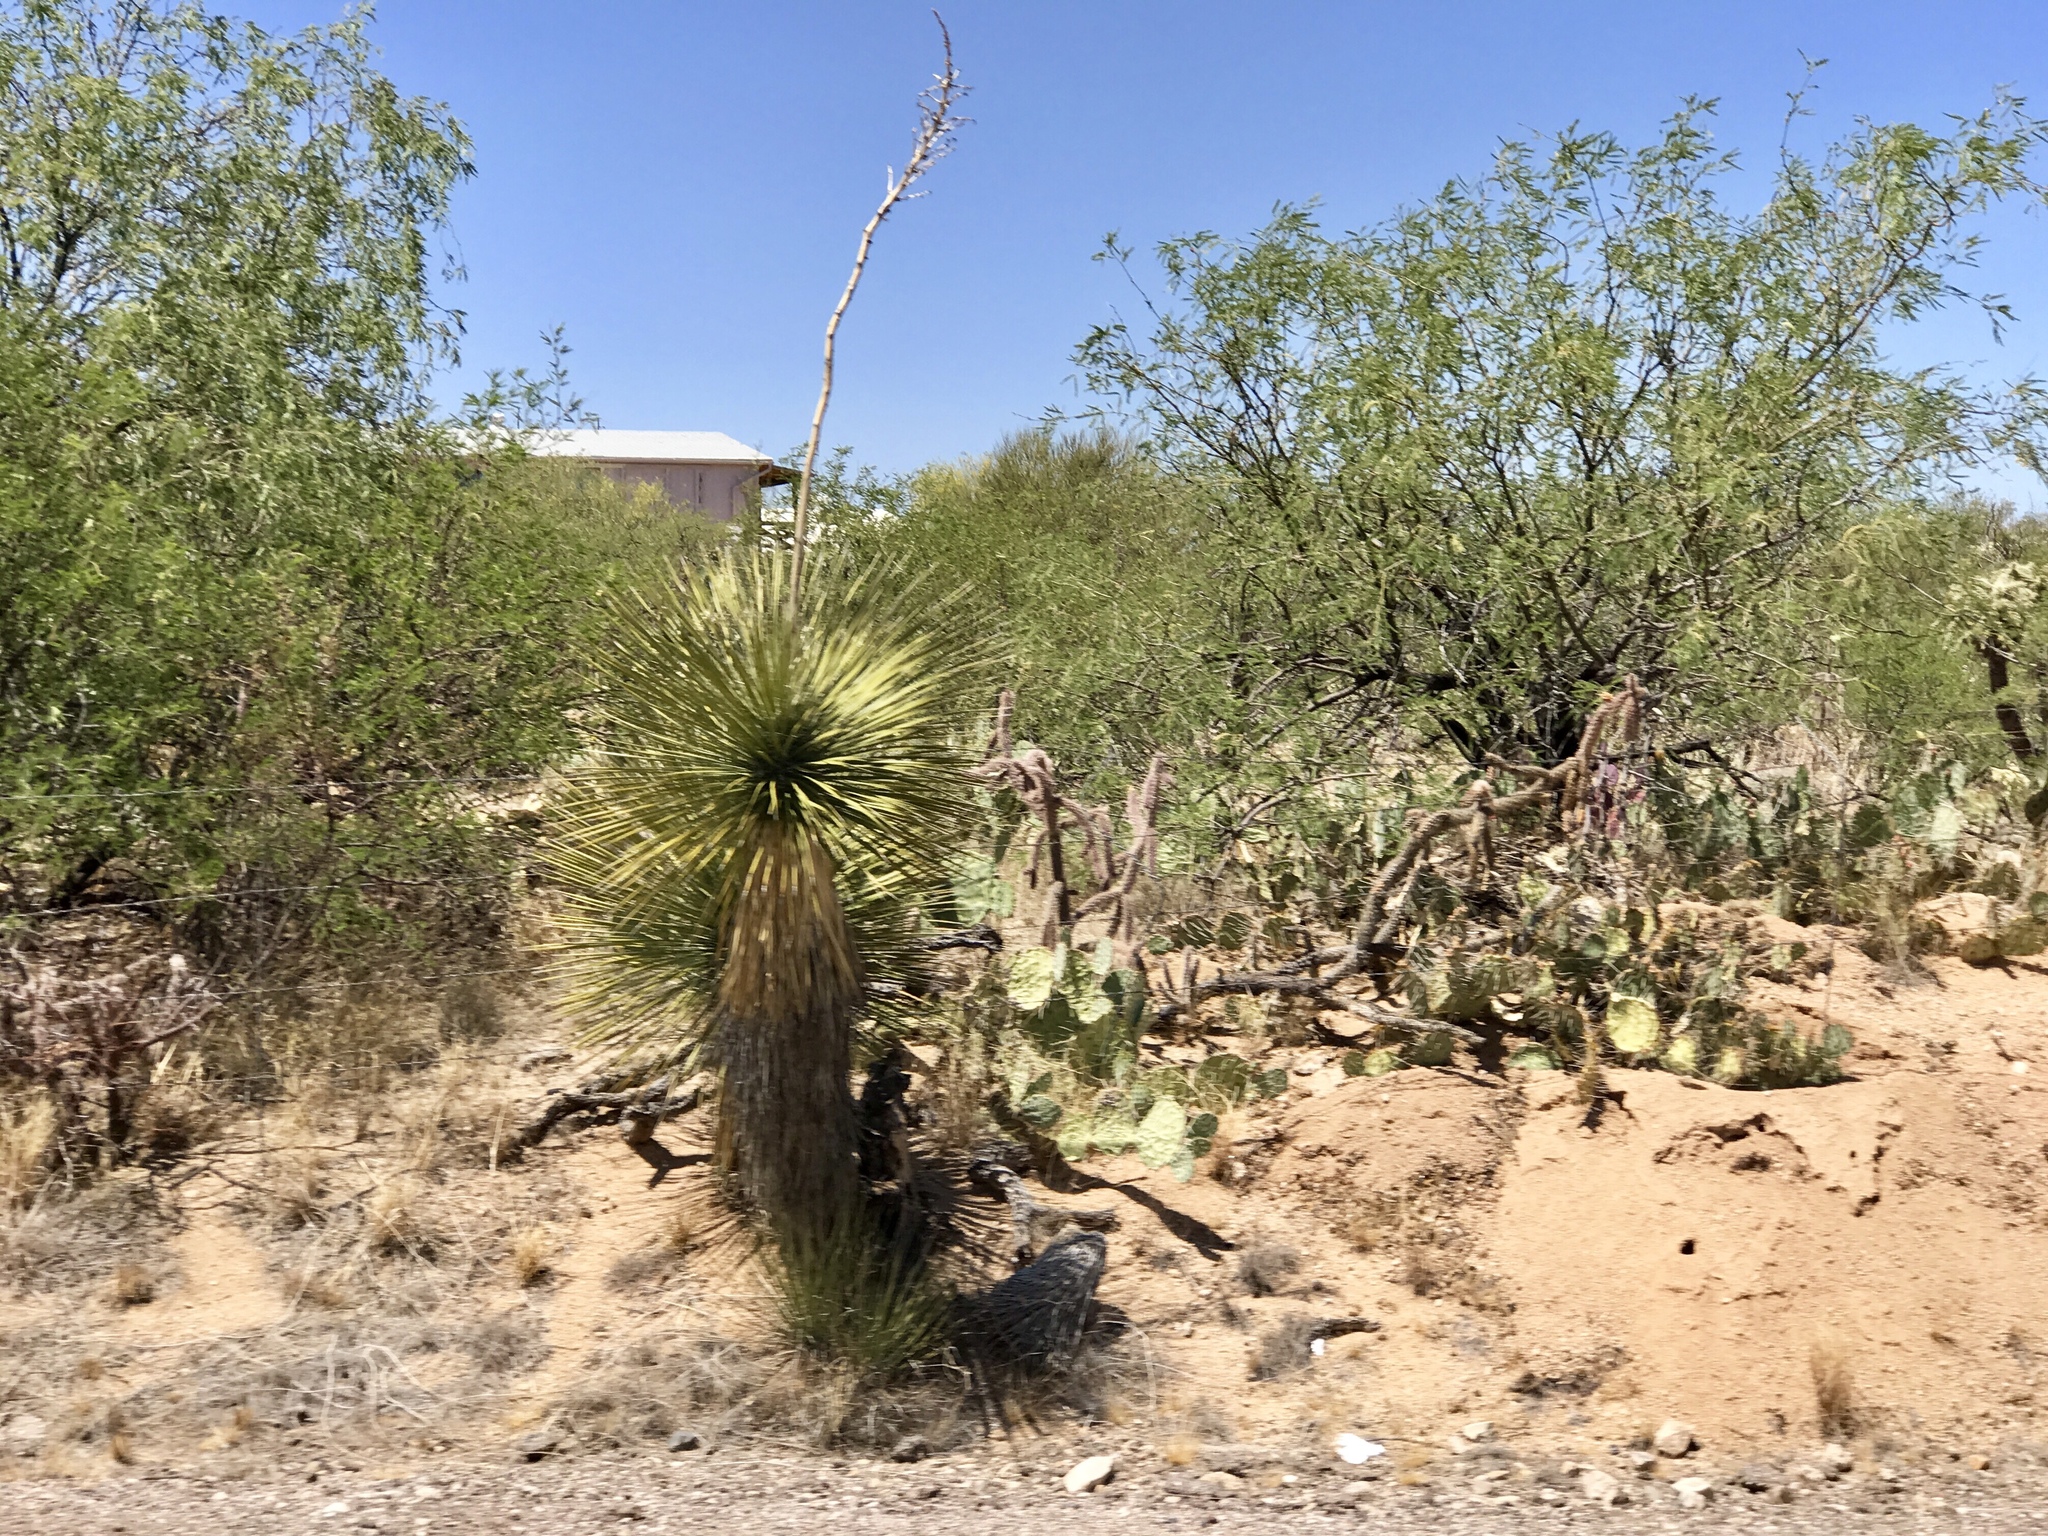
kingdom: Plantae
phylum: Tracheophyta
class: Liliopsida
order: Asparagales
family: Asparagaceae
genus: Yucca
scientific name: Yucca elata
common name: Palmella
